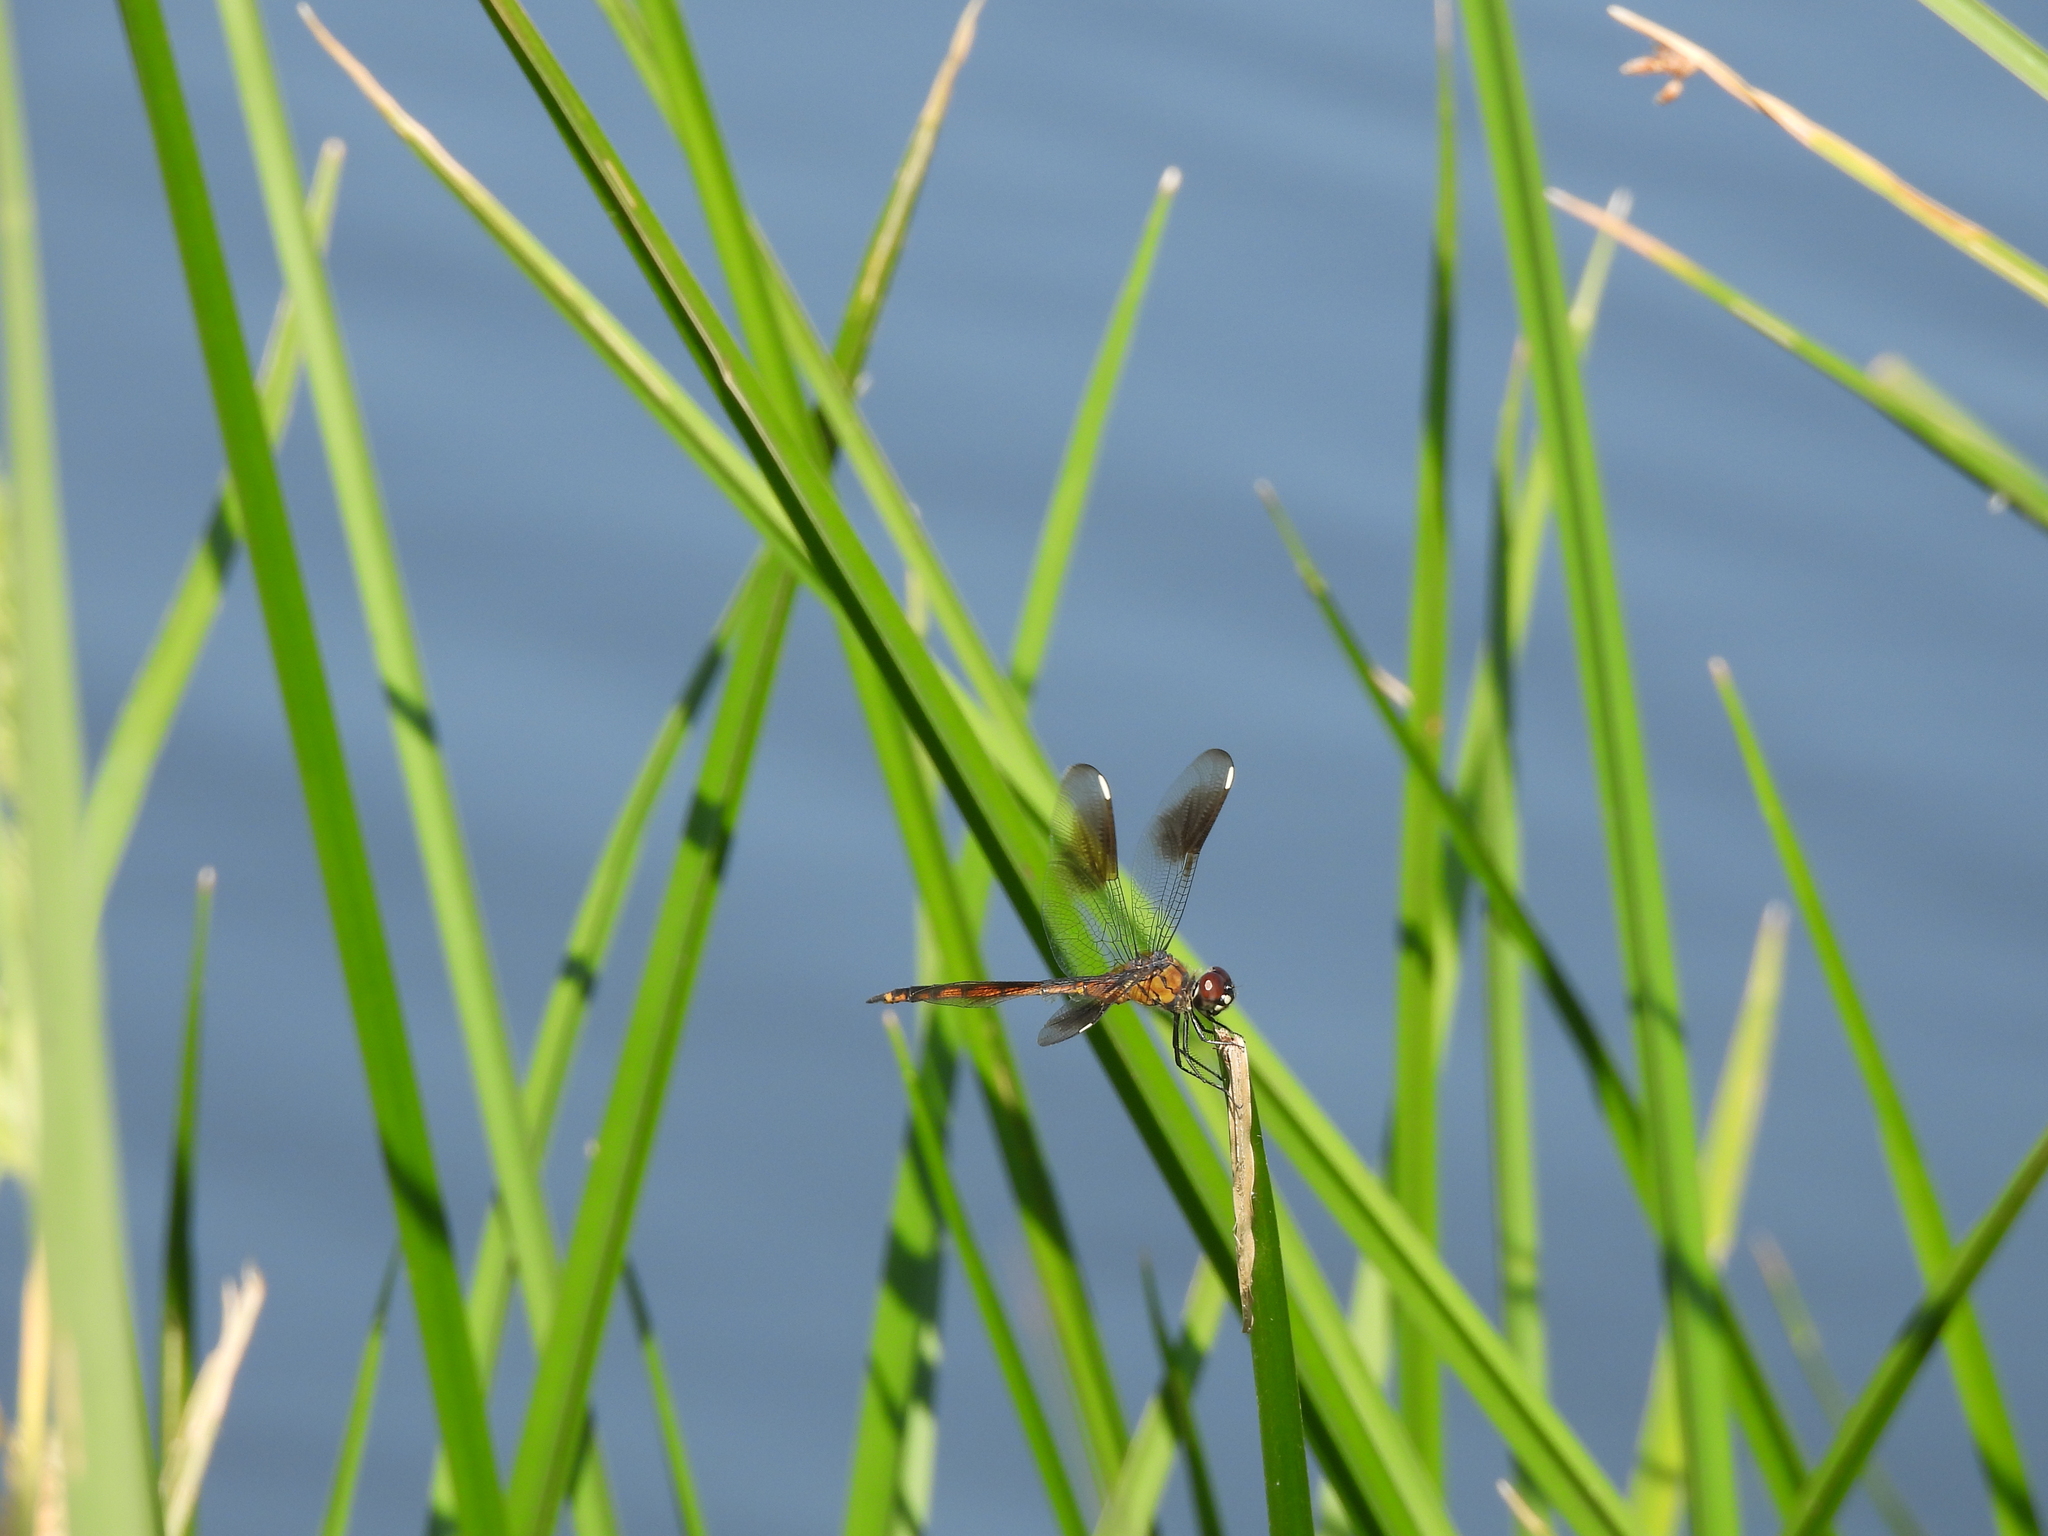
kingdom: Animalia
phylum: Arthropoda
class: Insecta
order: Odonata
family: Libellulidae
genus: Brachymesia
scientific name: Brachymesia gravida
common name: Four-spotted pennant
